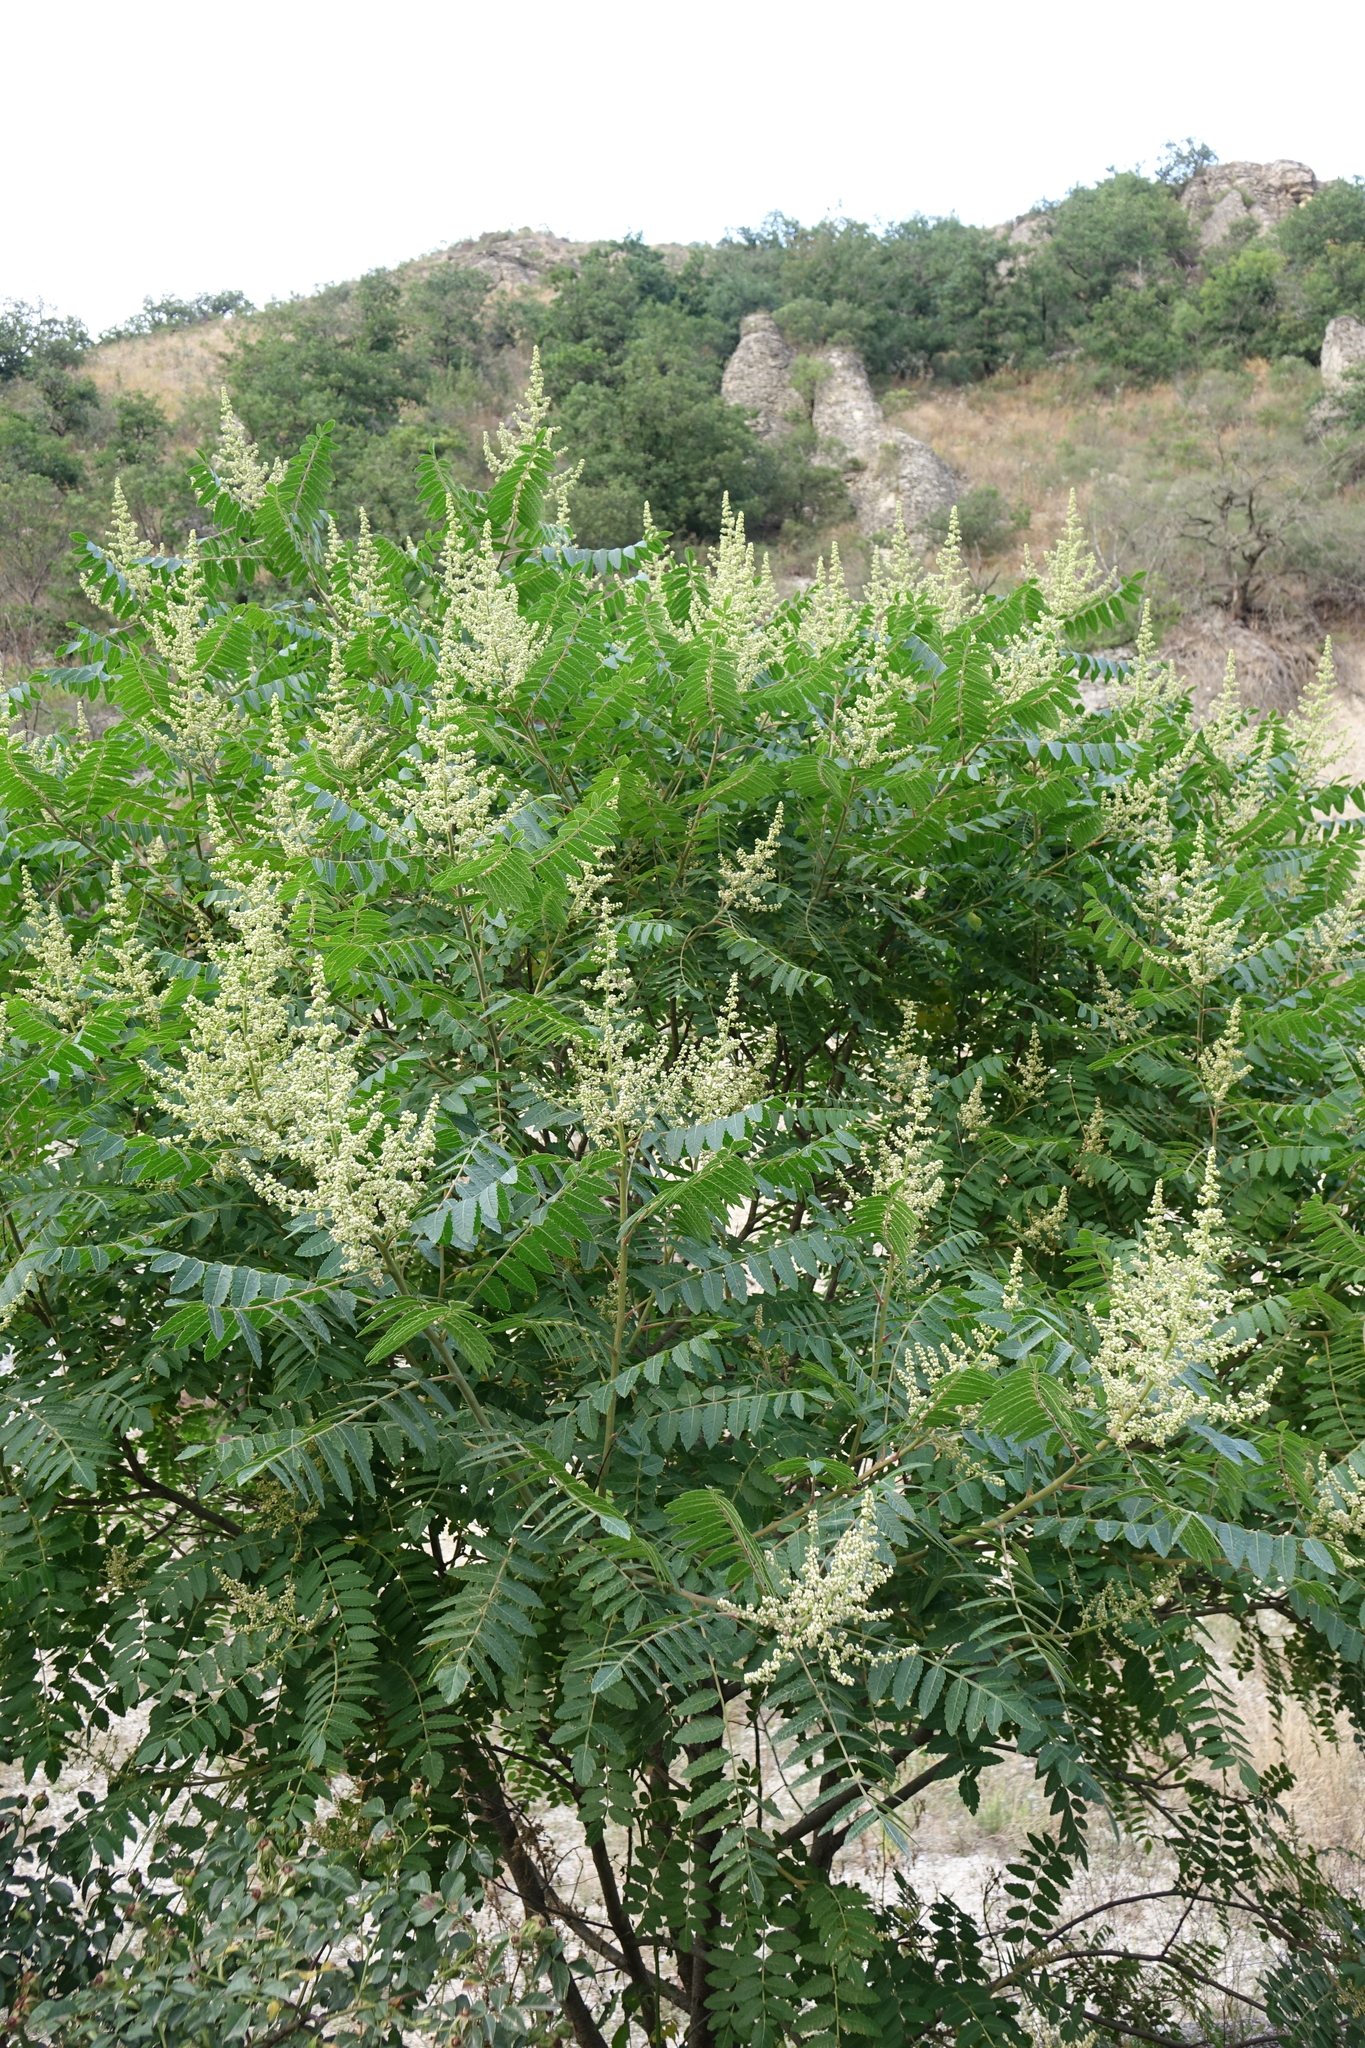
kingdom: Plantae
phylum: Tracheophyta
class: Magnoliopsida
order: Sapindales
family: Anacardiaceae
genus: Rhus
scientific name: Rhus coriaria
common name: Tanner's sumach
